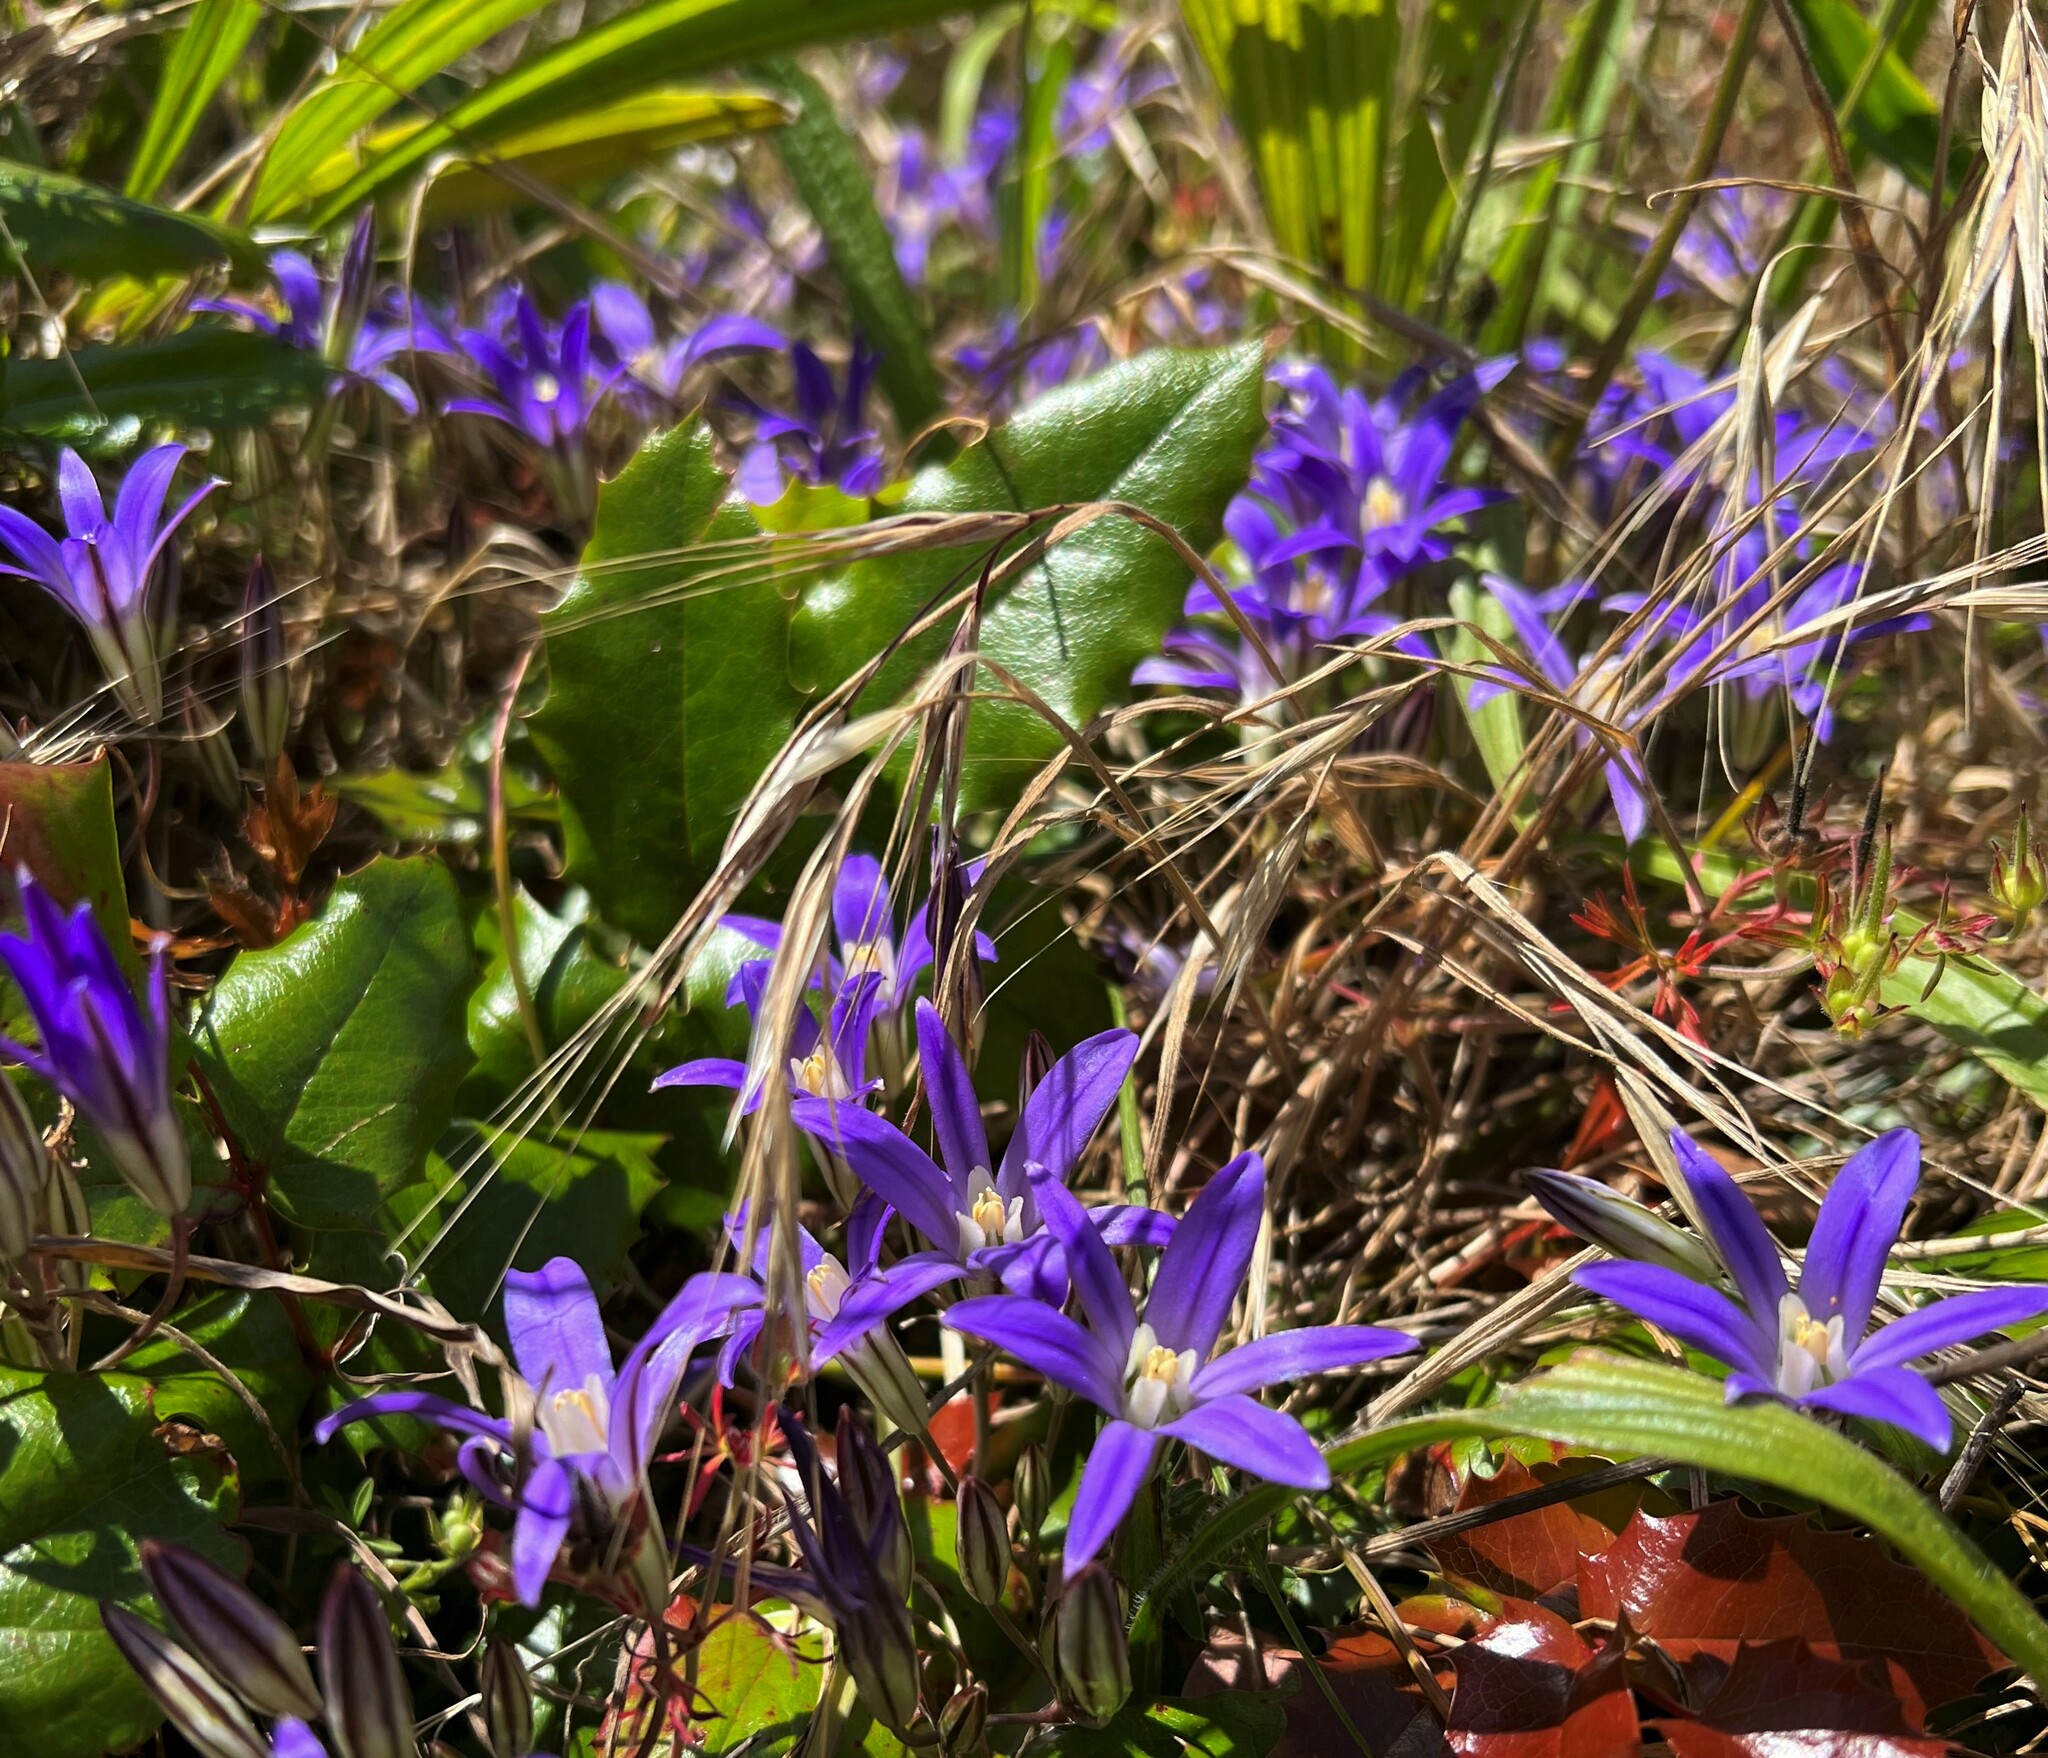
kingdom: Plantae
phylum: Tracheophyta
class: Liliopsida
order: Asparagales
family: Asparagaceae
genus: Brodiaea
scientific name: Brodiaea coronaria
